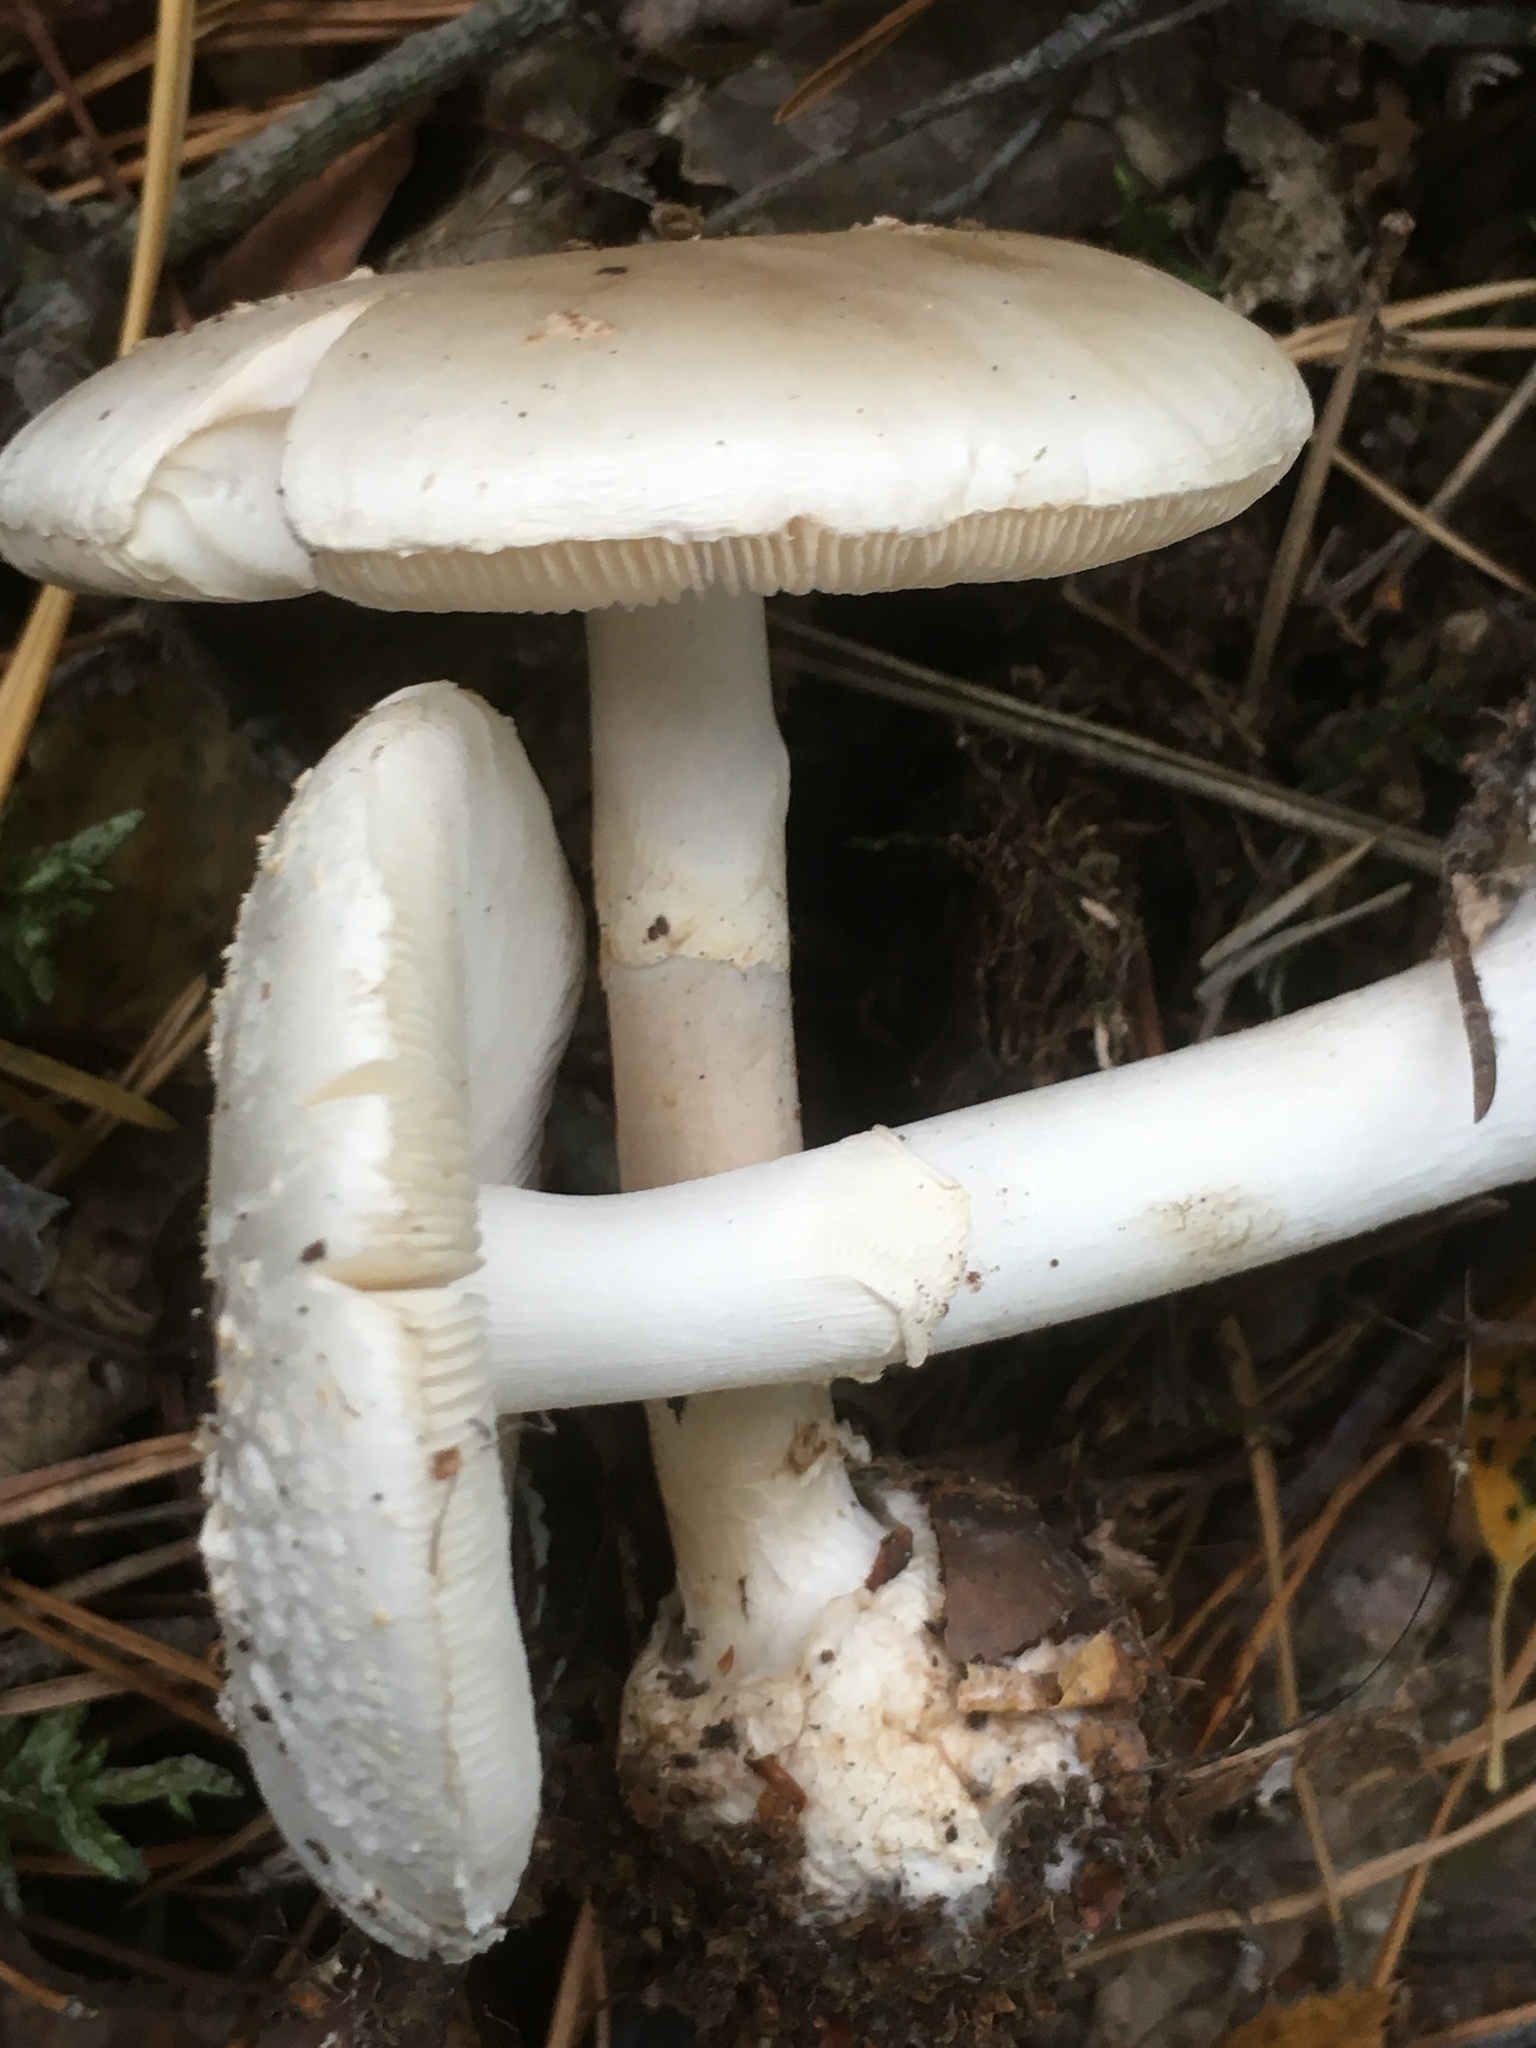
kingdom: Fungi
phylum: Basidiomycota
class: Agaricomycetes
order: Agaricales
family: Amanitaceae
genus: Amanita
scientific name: Amanita citrina
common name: False death-cap
